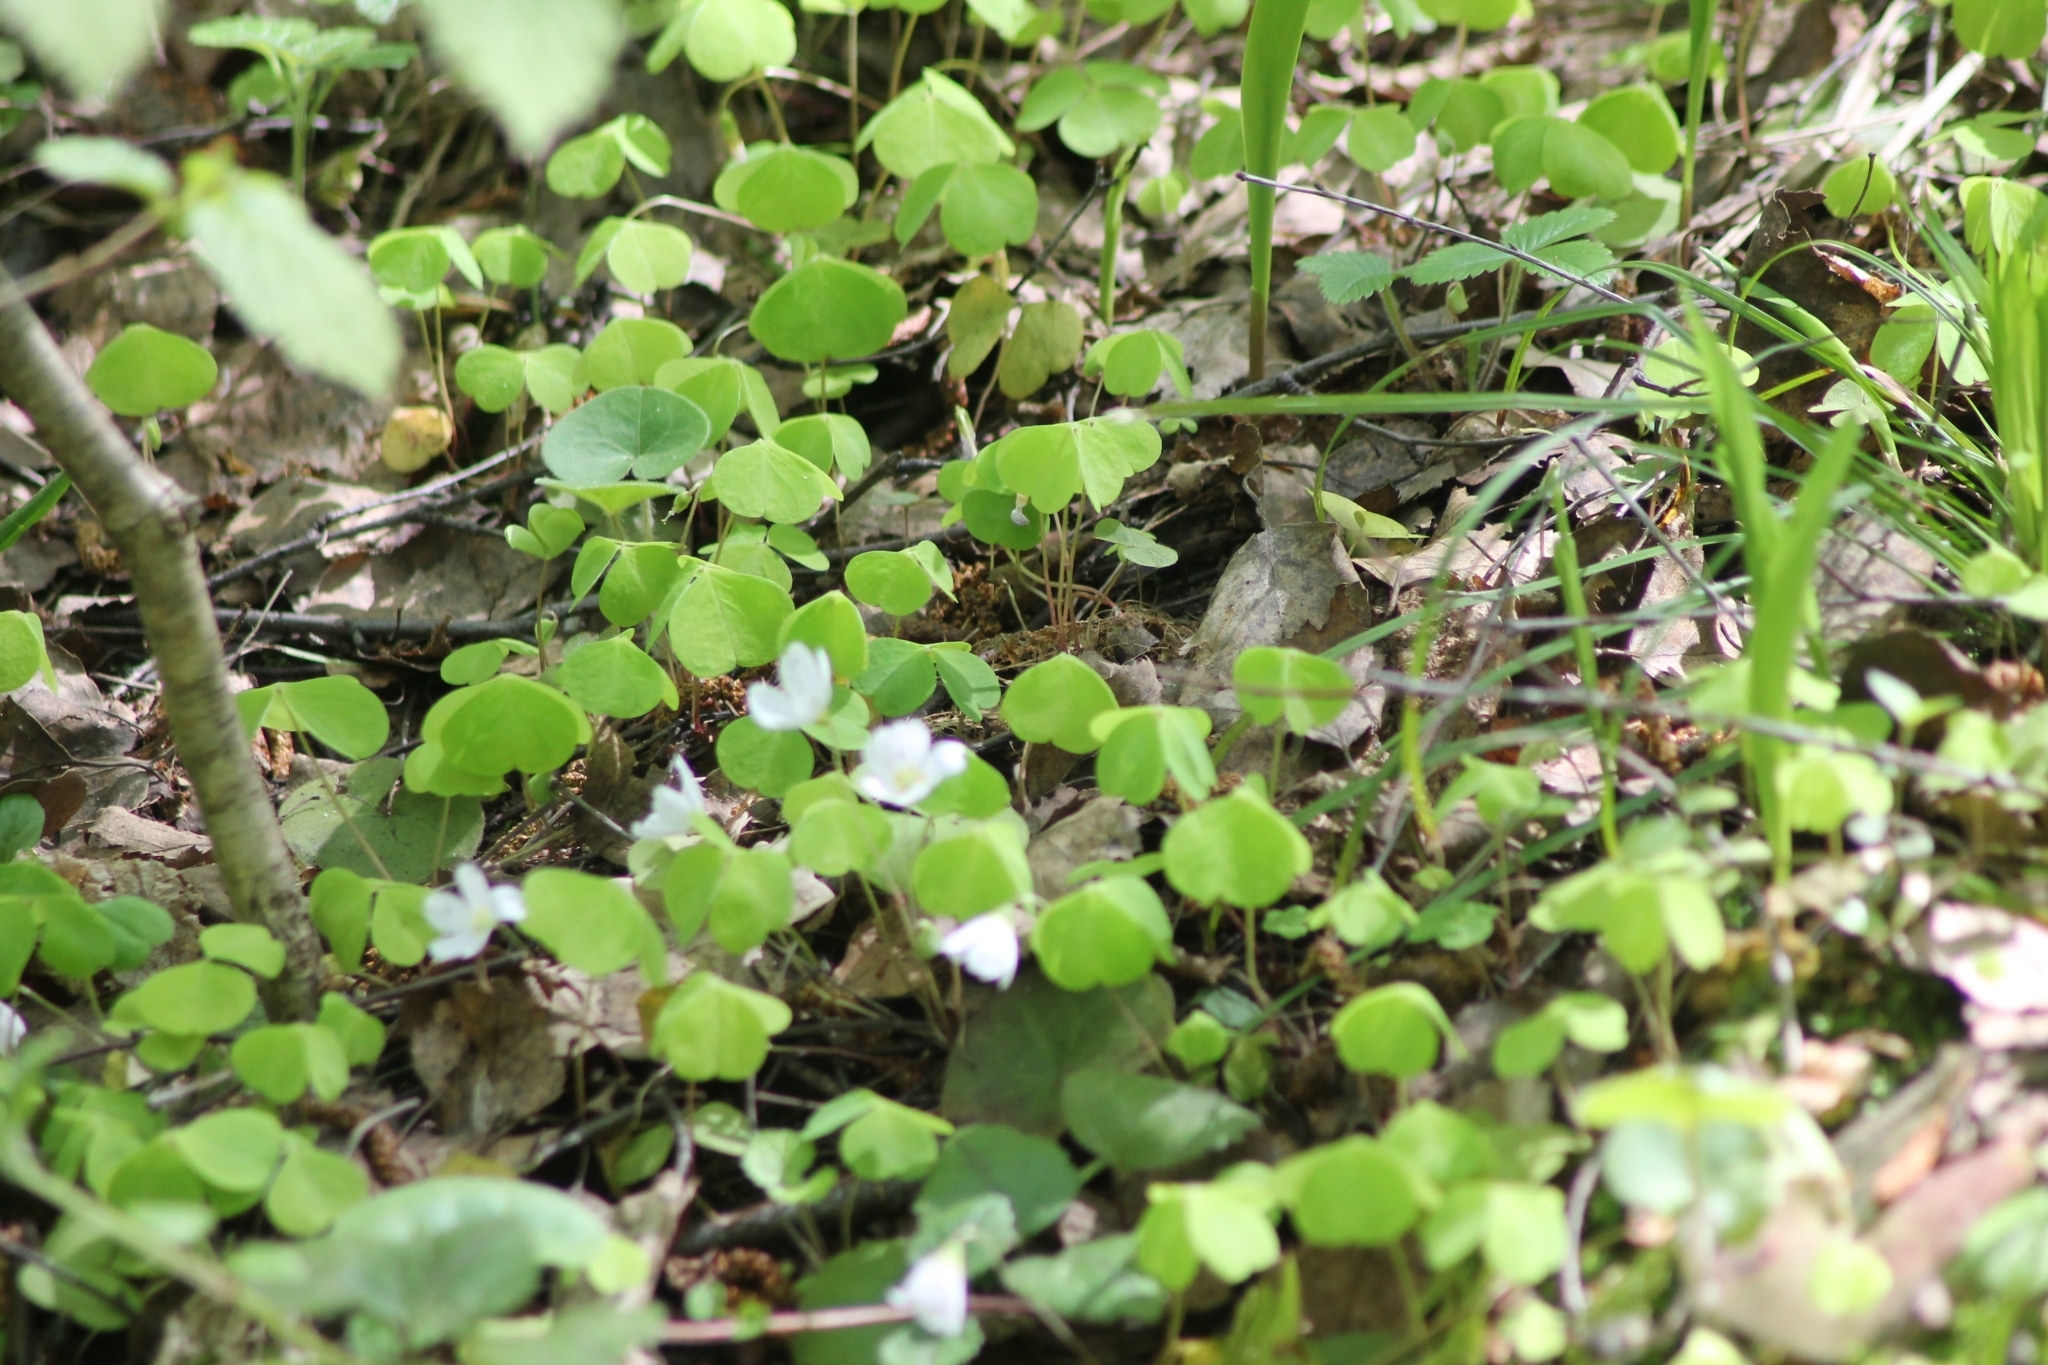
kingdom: Plantae
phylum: Tracheophyta
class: Magnoliopsida
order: Oxalidales
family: Oxalidaceae
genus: Oxalis
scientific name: Oxalis acetosella
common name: Wood-sorrel
